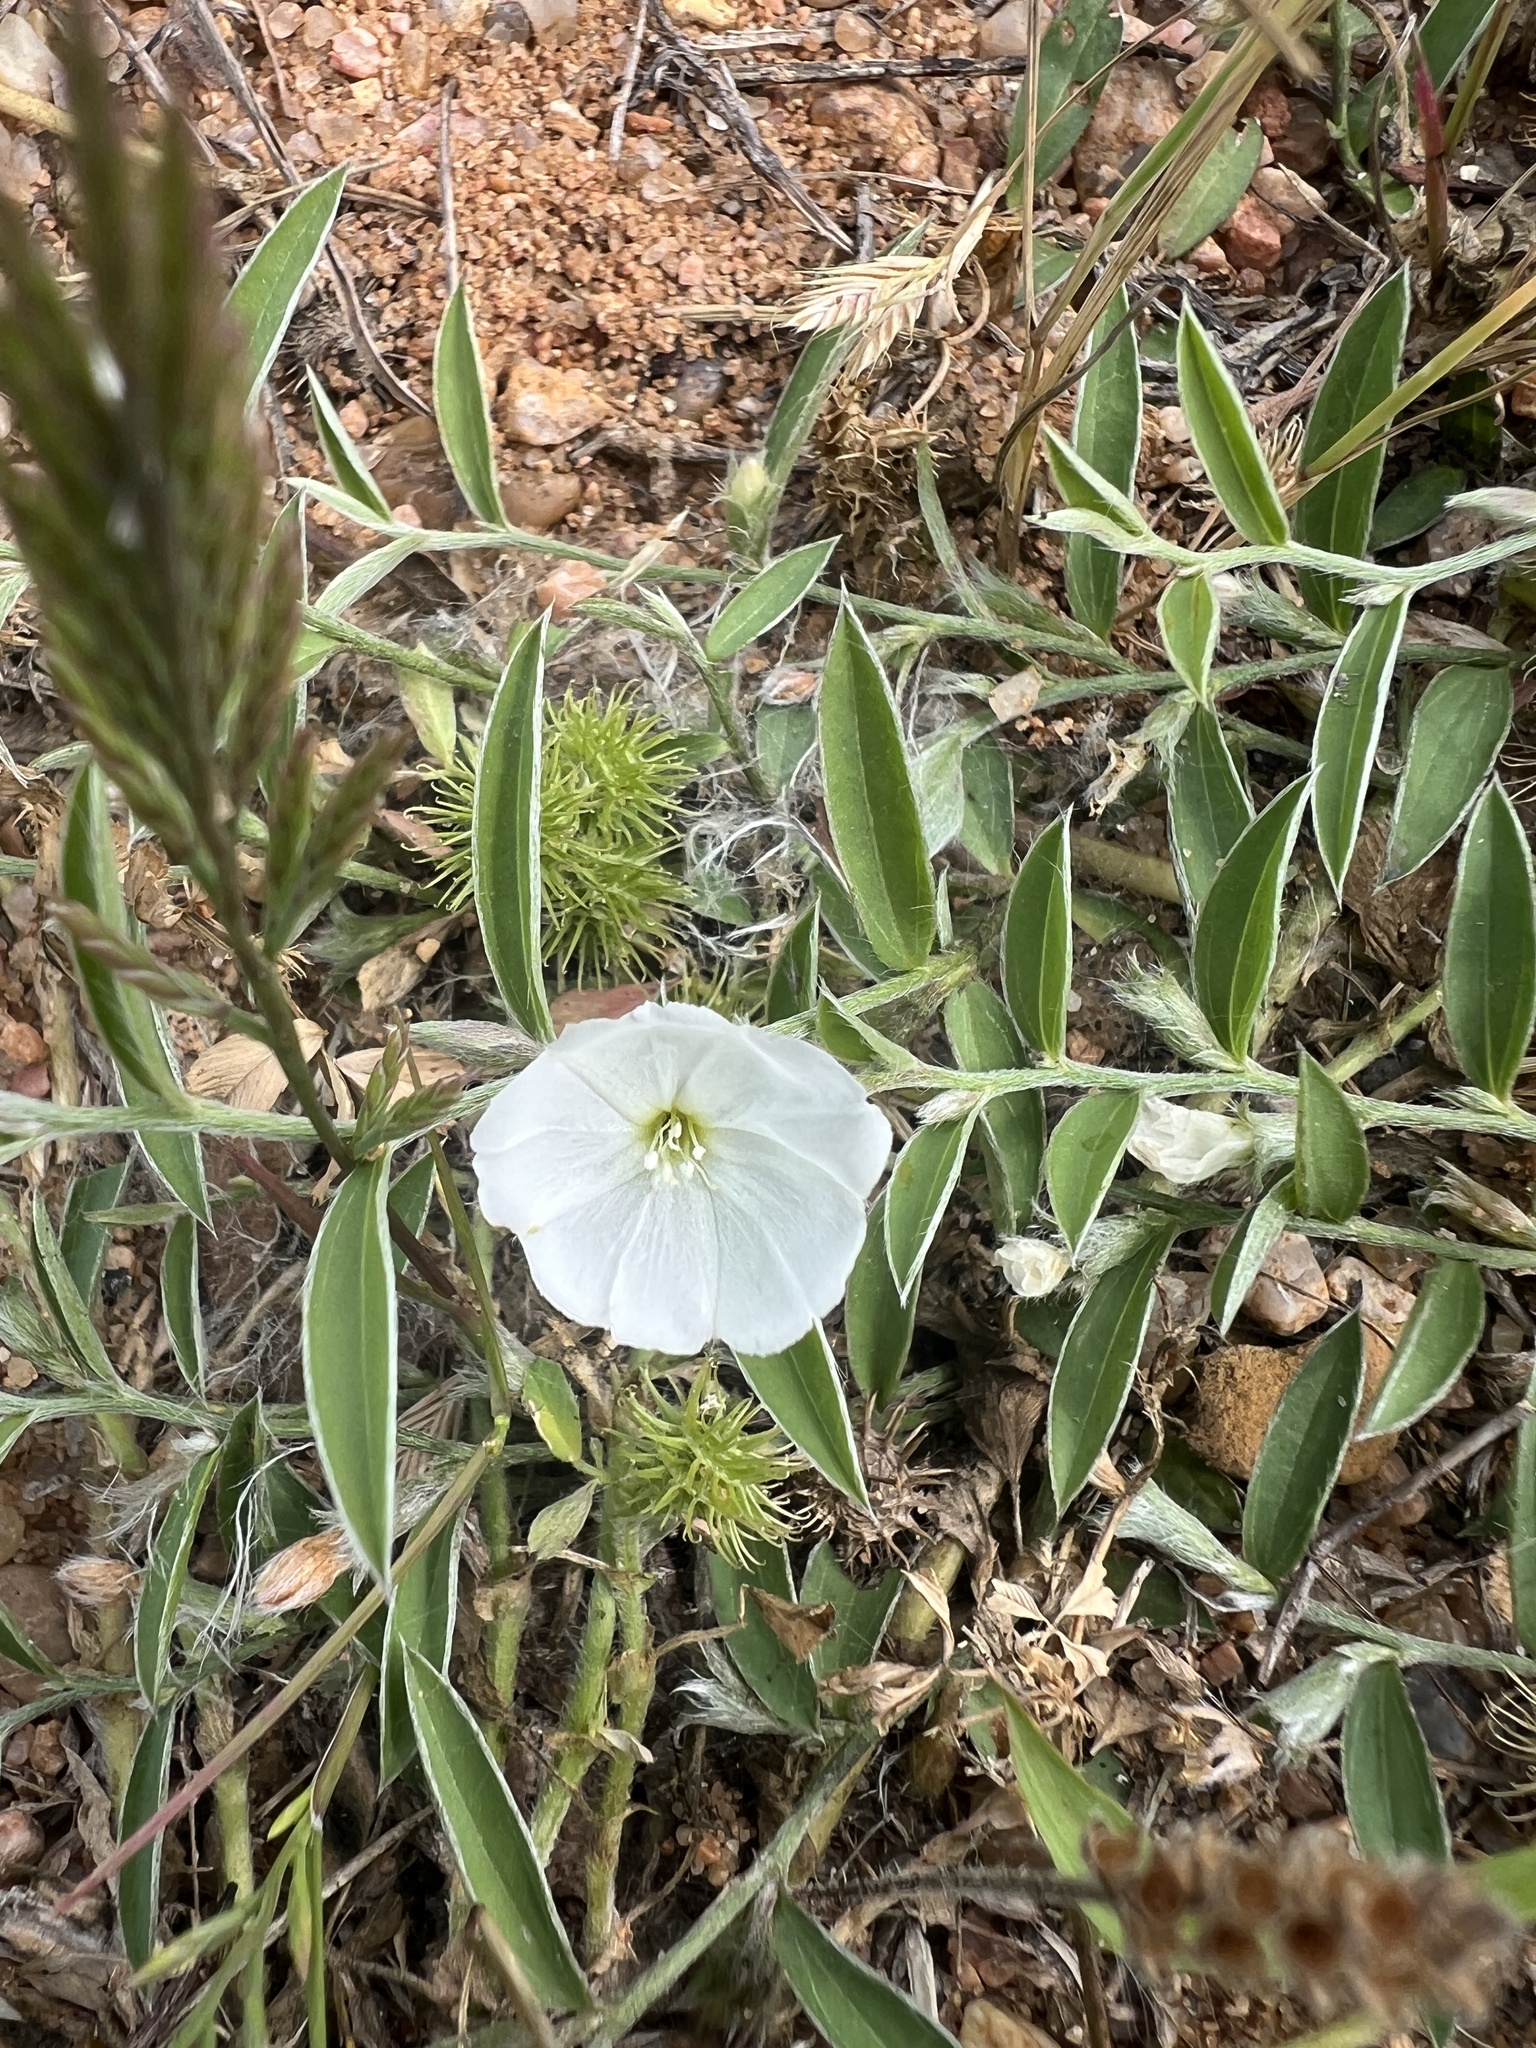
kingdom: Plantae
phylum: Tracheophyta
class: Magnoliopsida
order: Solanales
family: Convolvulaceae
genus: Evolvulus
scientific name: Evolvulus sericeus
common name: Blue dots
